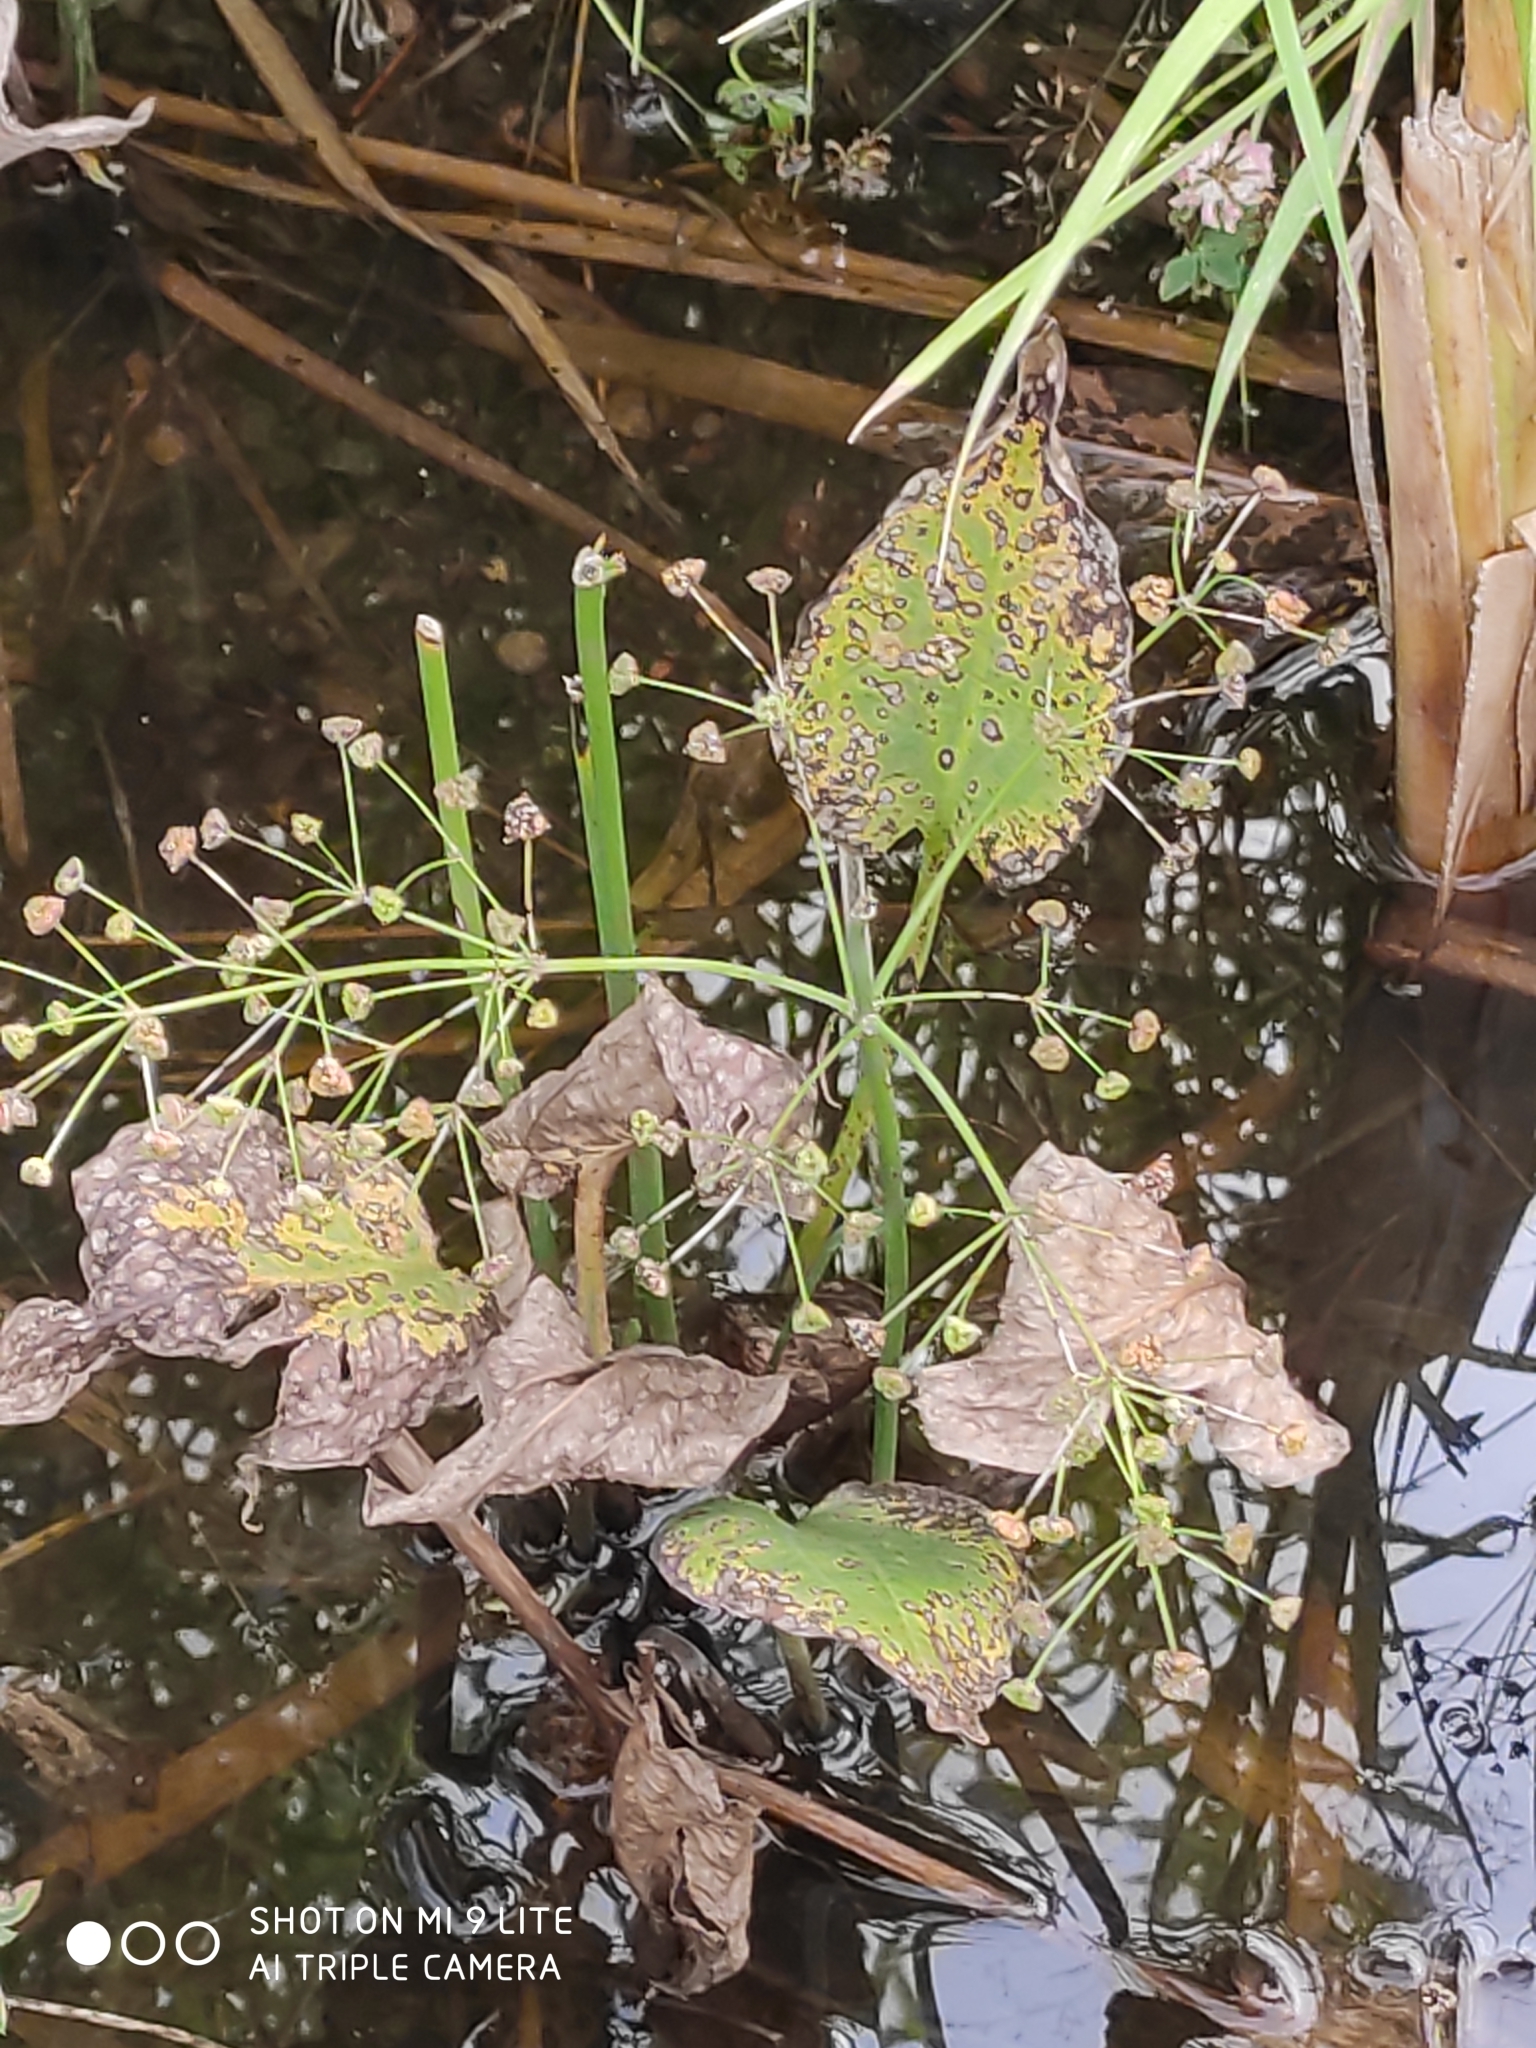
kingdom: Plantae
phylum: Tracheophyta
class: Liliopsida
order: Alismatales
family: Alismataceae
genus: Alisma
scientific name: Alisma plantago-aquatica
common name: Water-plantain
